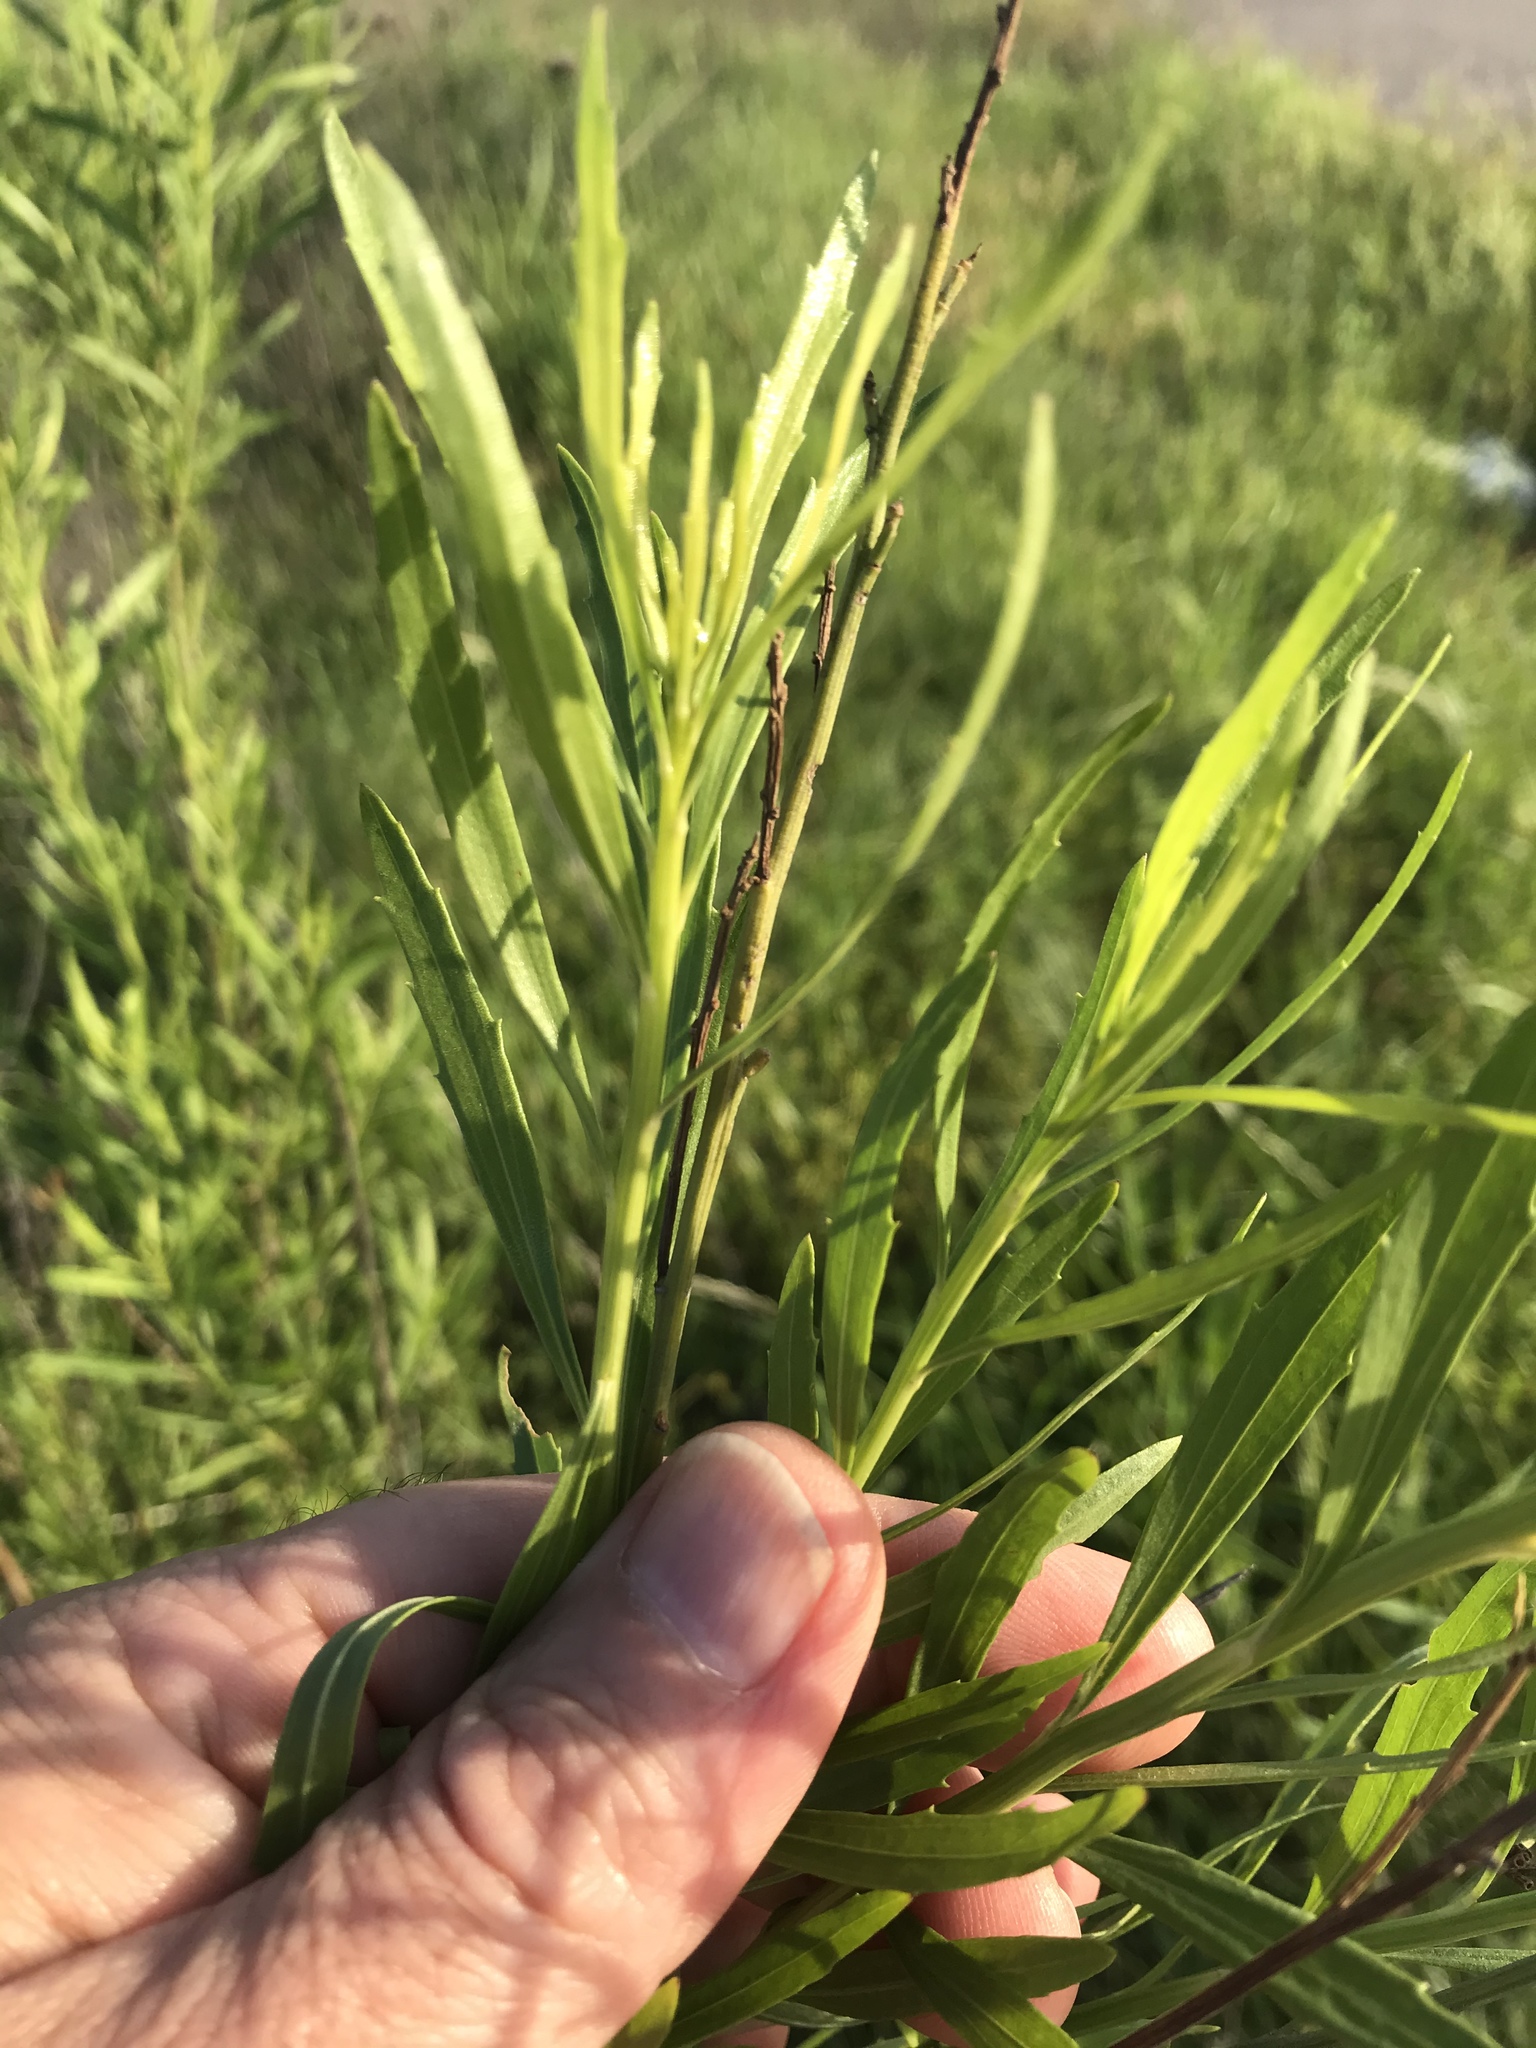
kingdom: Plantae
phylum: Tracheophyta
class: Magnoliopsida
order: Asterales
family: Asteraceae
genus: Baccharis
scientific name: Baccharis neglecta
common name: Roosevelt-weed
